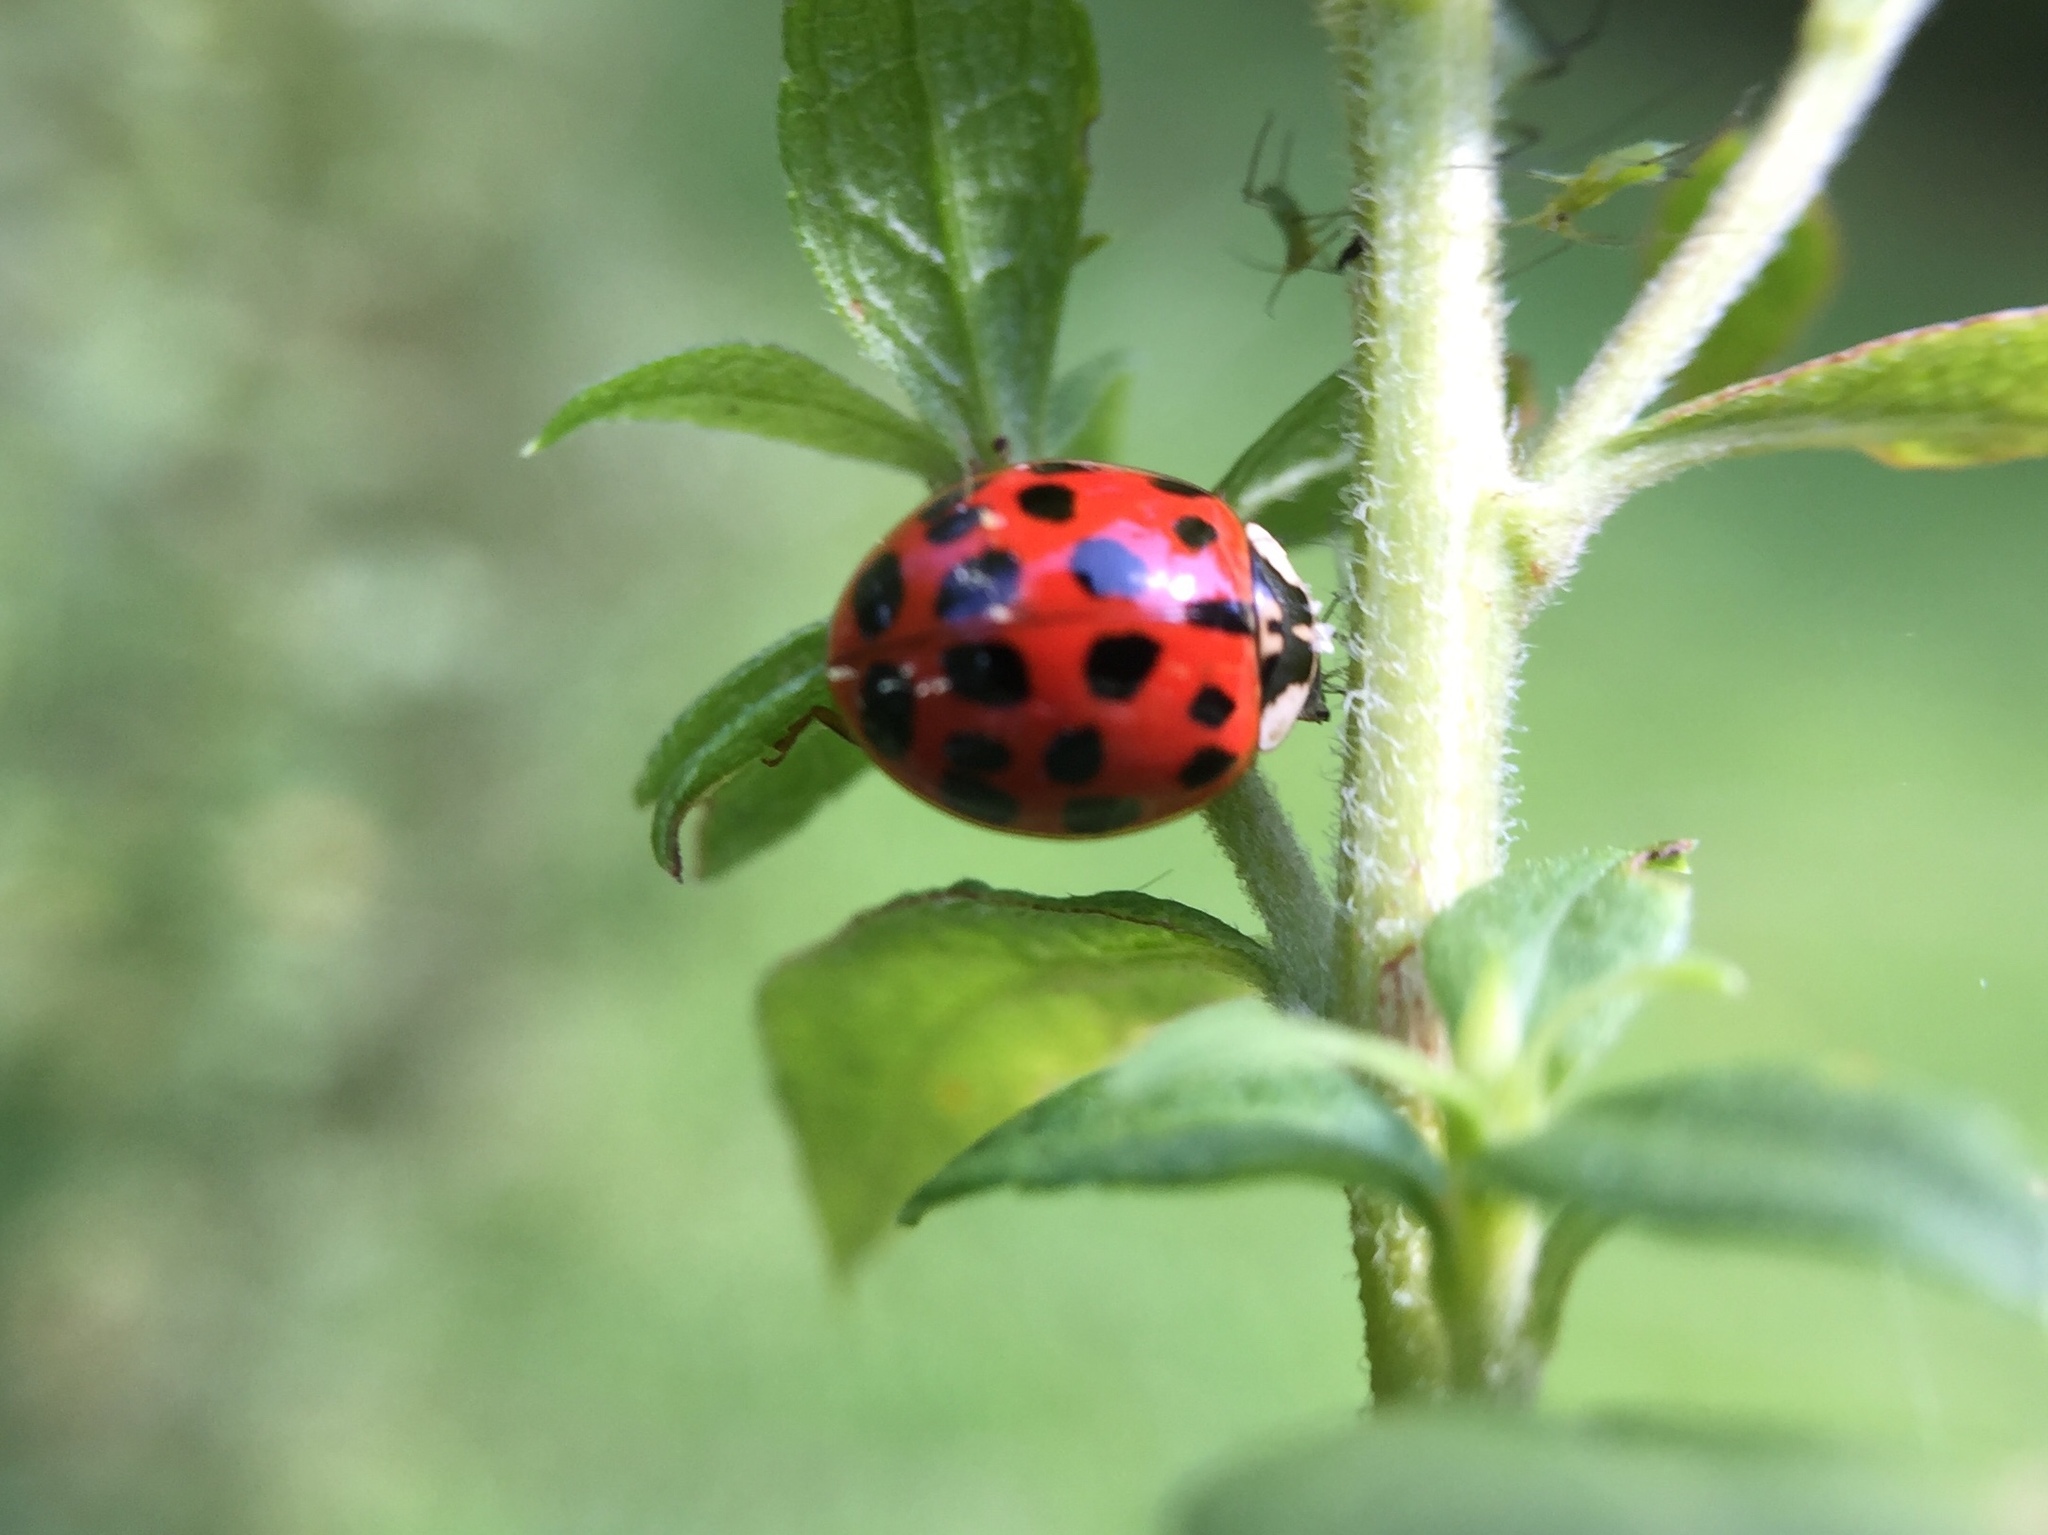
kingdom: Animalia
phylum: Arthropoda
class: Insecta
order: Coleoptera
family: Coccinellidae
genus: Harmonia
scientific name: Harmonia axyridis
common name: Harlequin ladybird
